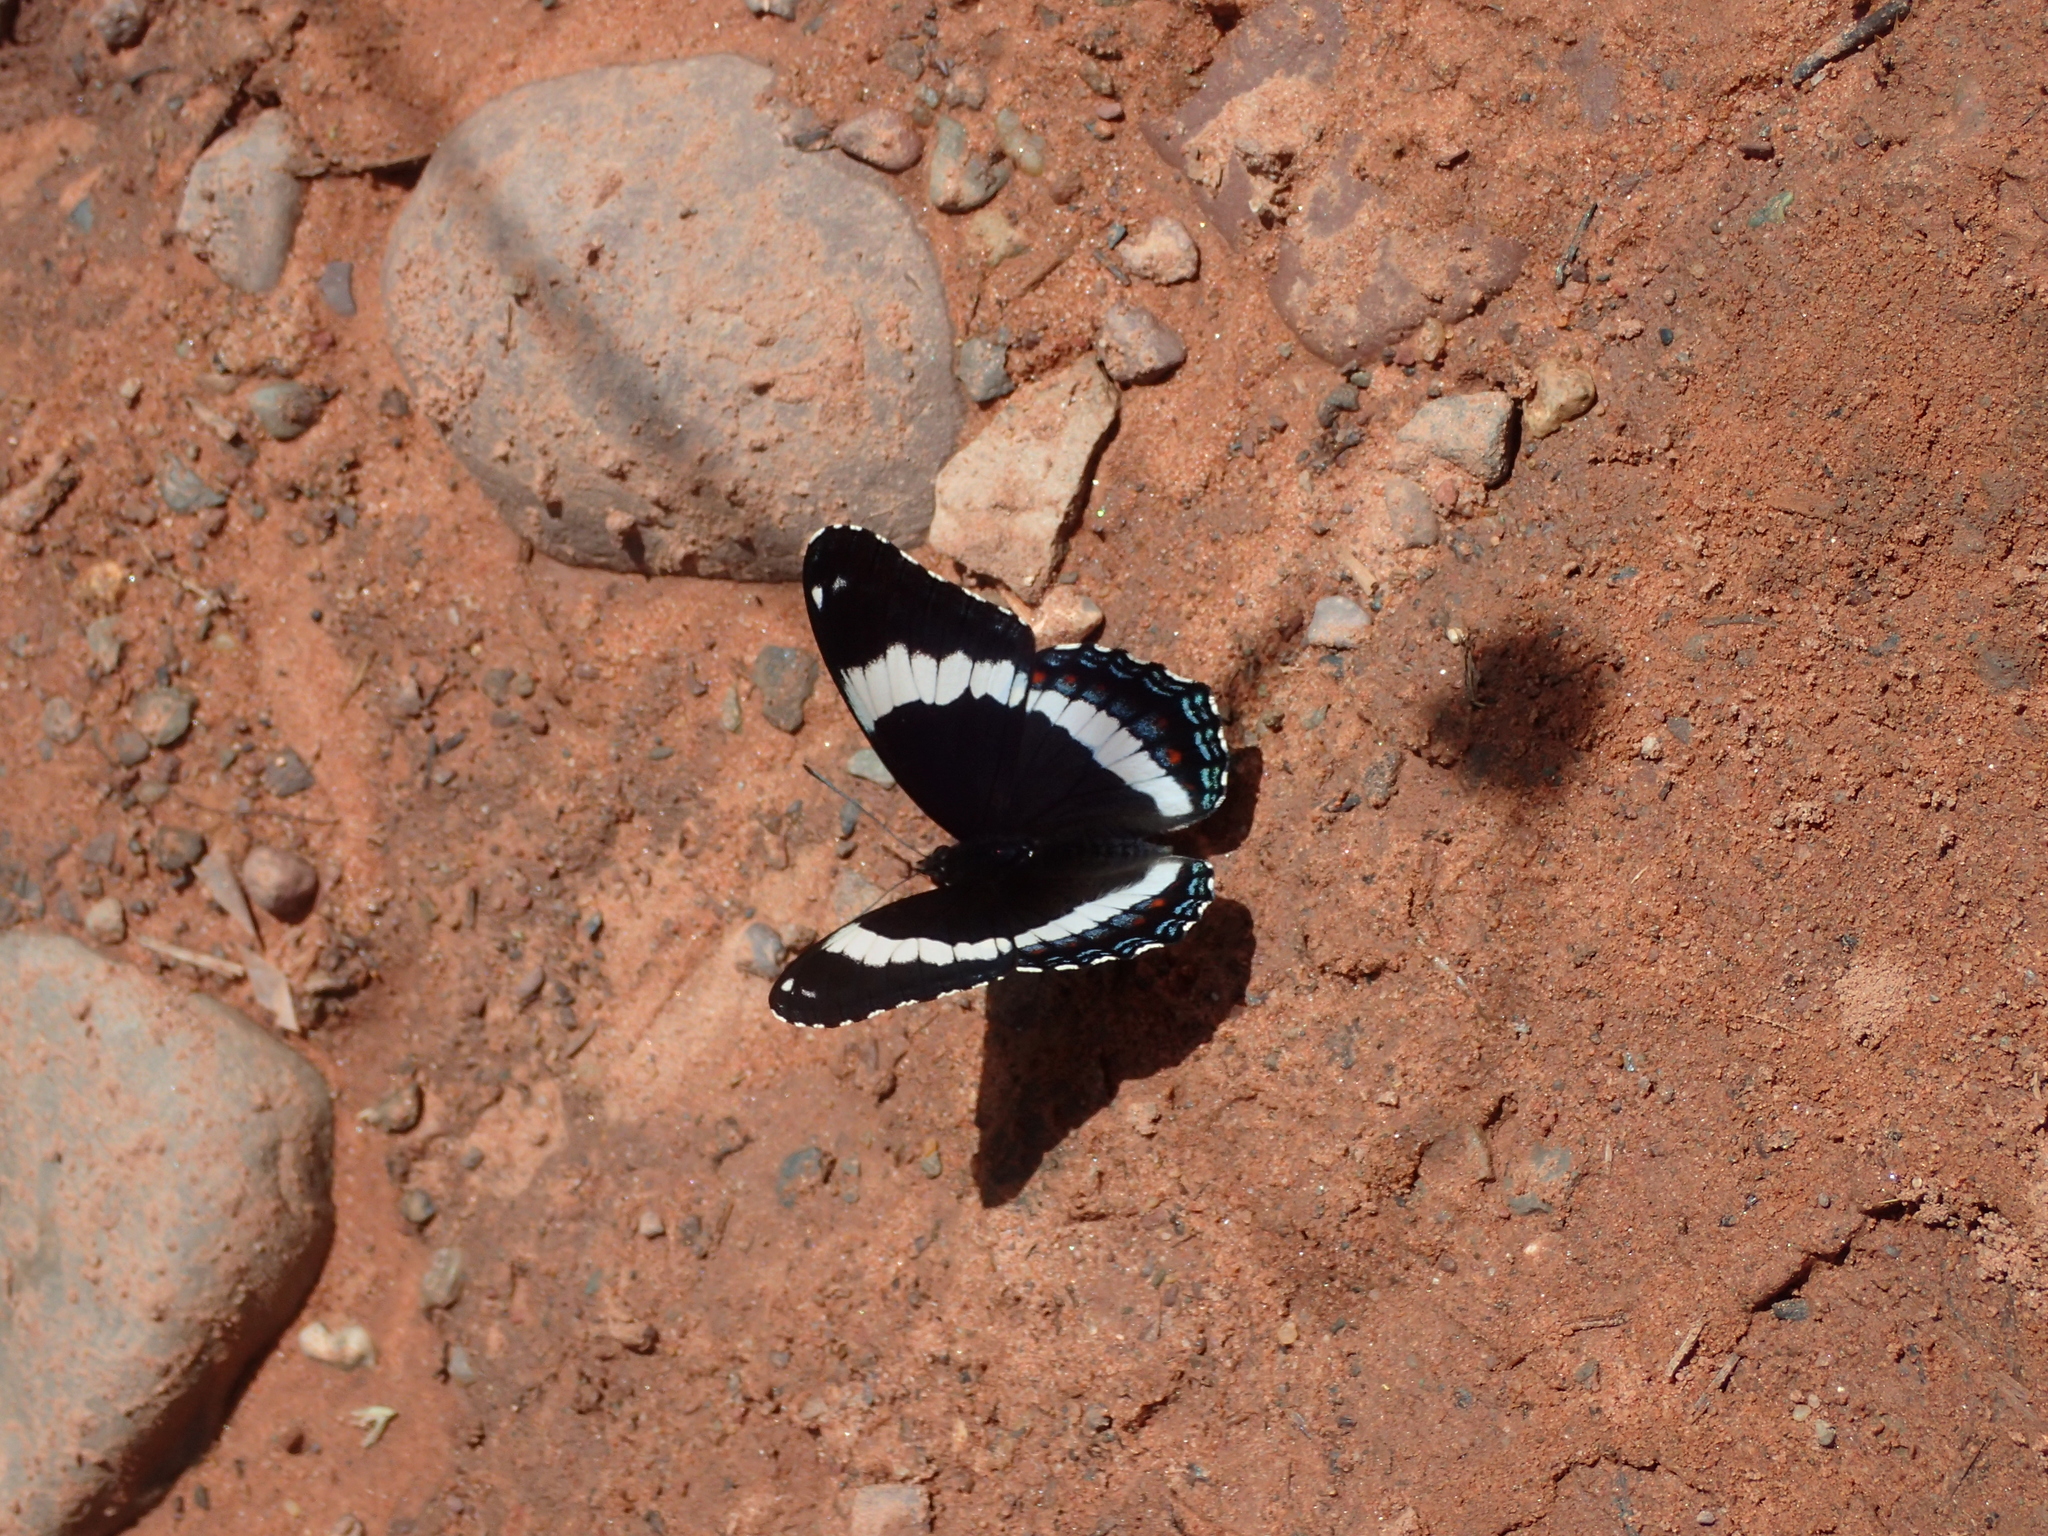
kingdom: Animalia
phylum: Arthropoda
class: Insecta
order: Lepidoptera
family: Nymphalidae
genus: Limenitis
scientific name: Limenitis arthemis
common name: Red-spotted admiral
